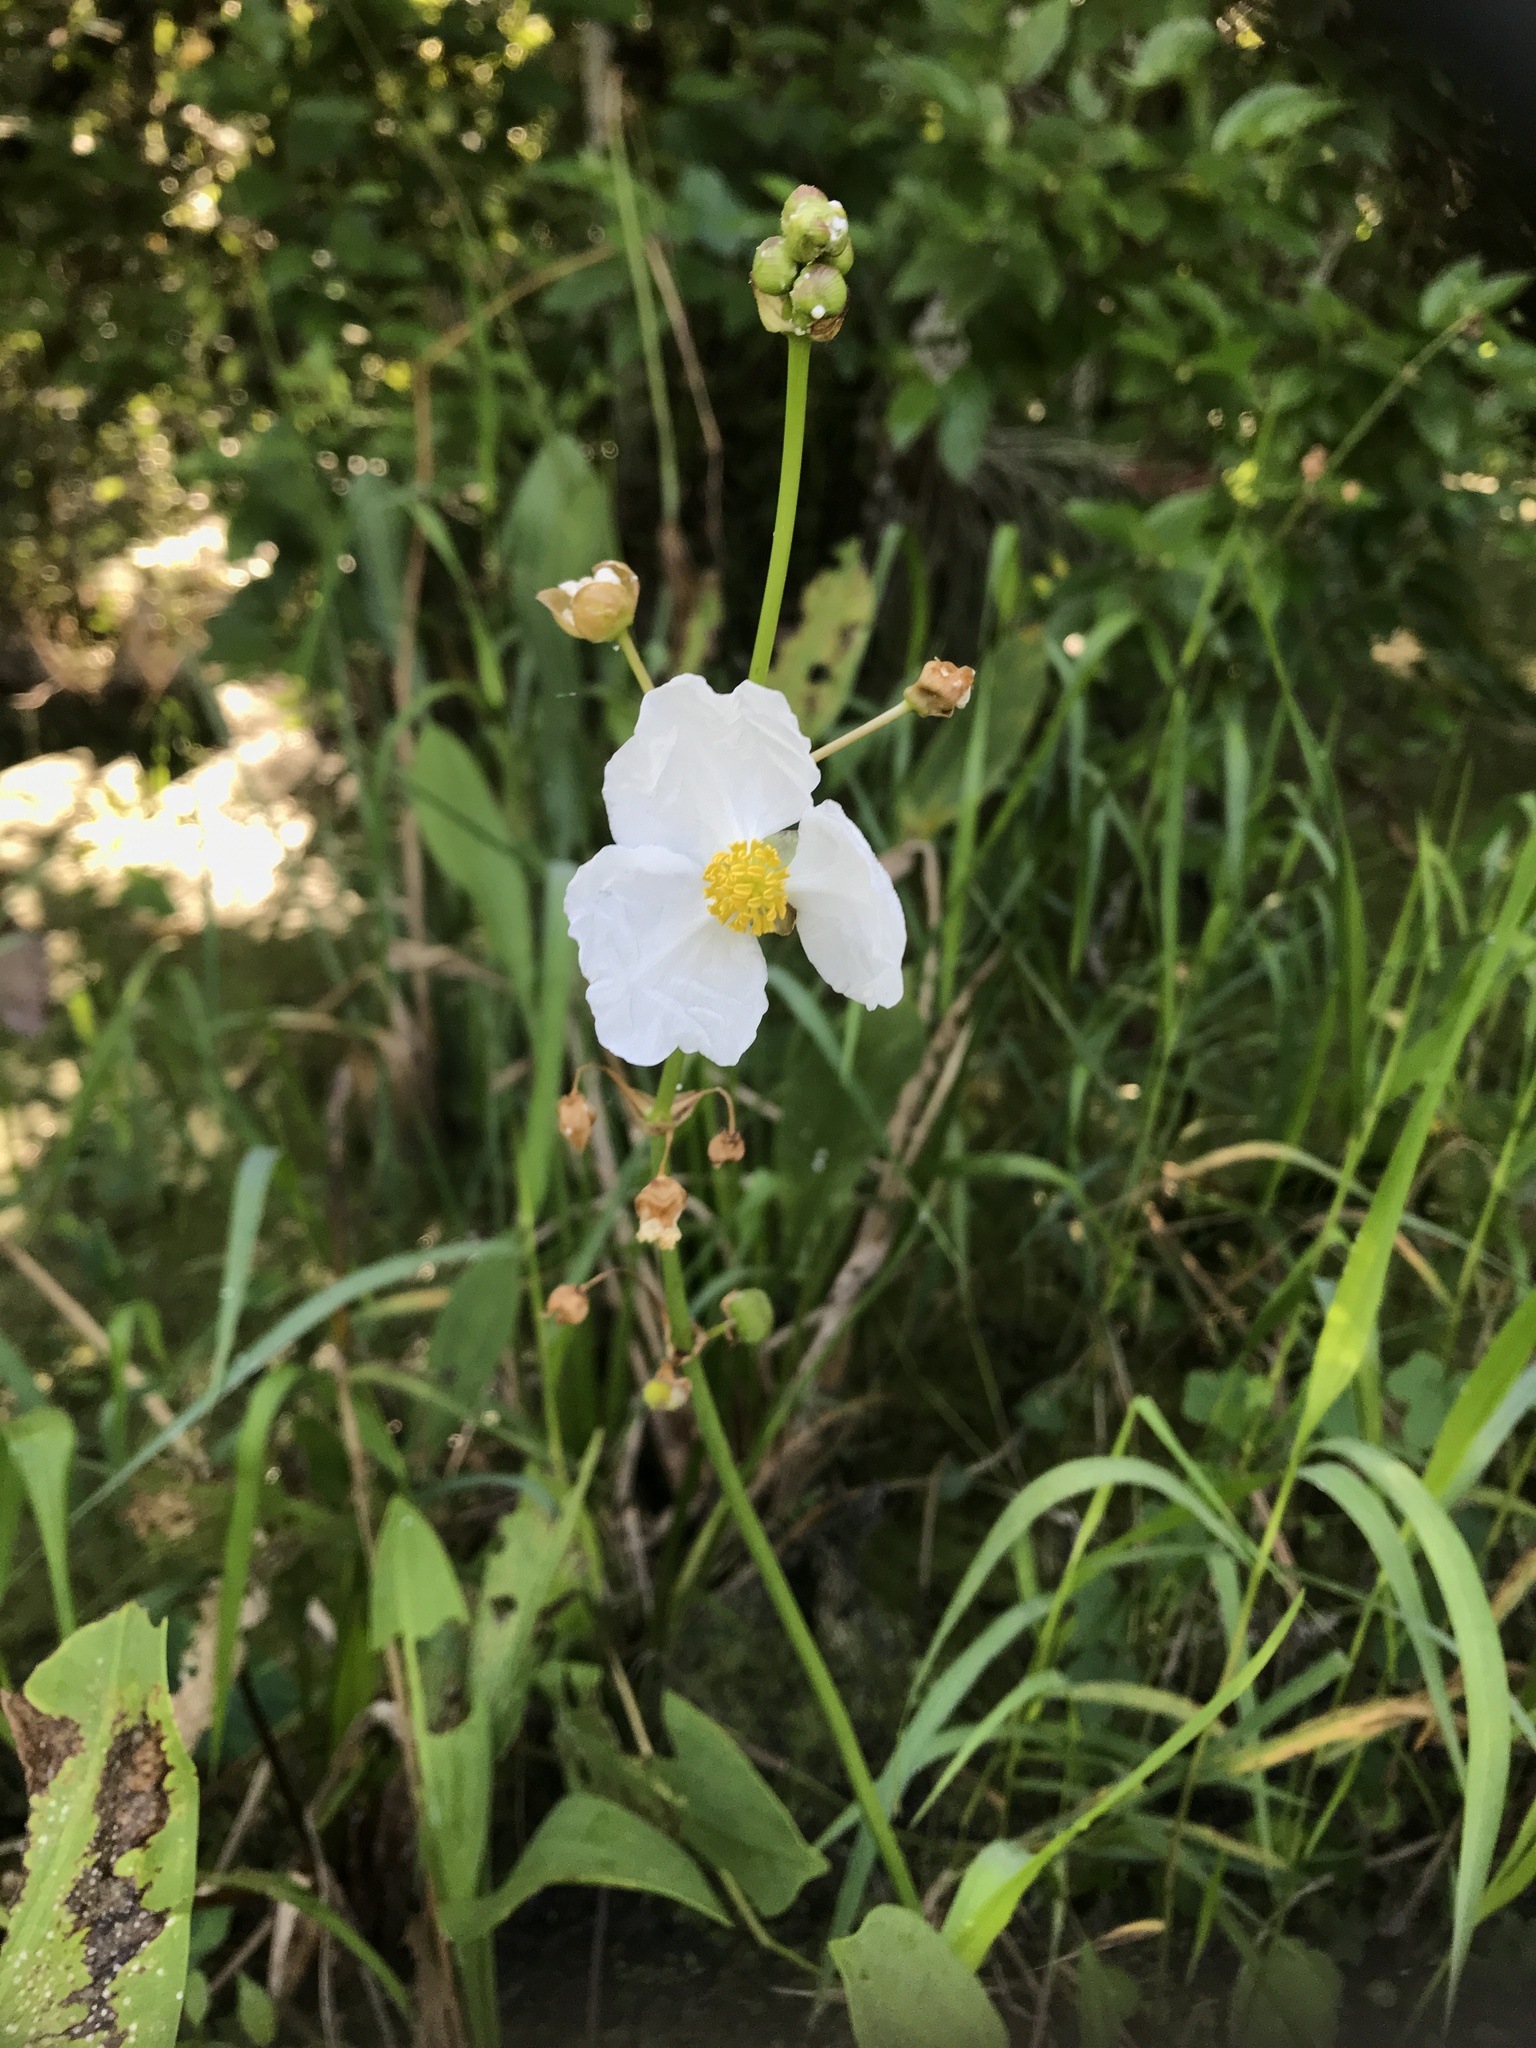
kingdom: Plantae
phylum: Tracheophyta
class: Liliopsida
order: Alismatales
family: Alismataceae
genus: Sagittaria
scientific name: Sagittaria lancifolia
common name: Lance-leaf arrowhead
